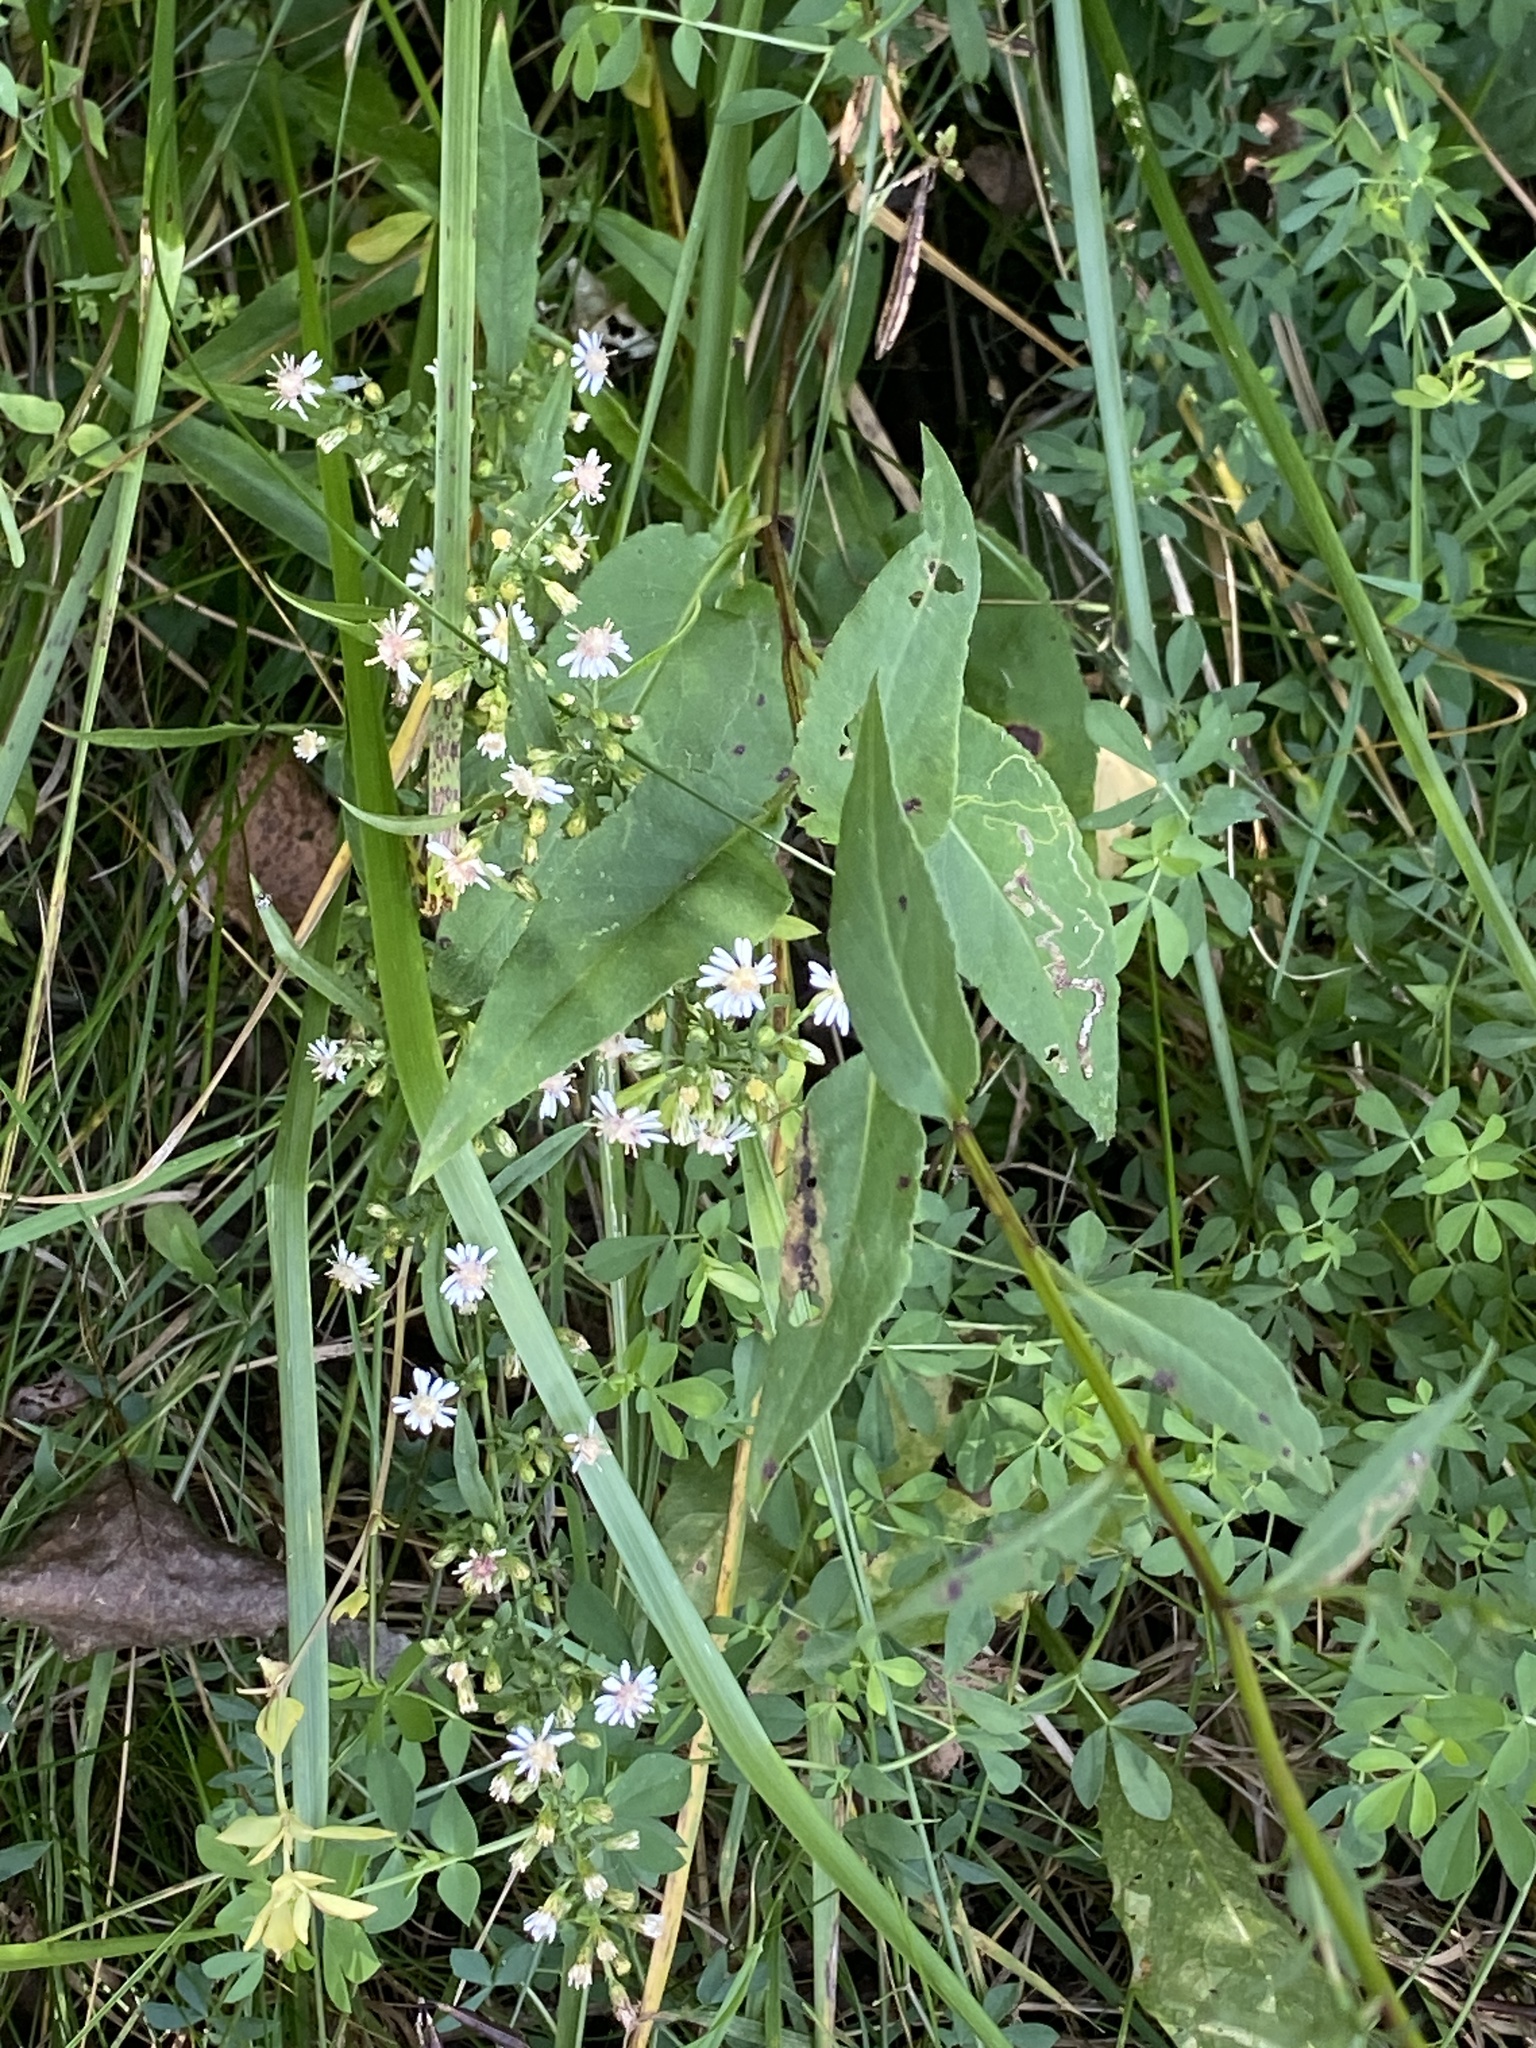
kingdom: Plantae
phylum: Tracheophyta
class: Magnoliopsida
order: Asterales
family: Asteraceae
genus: Symphyotrichum
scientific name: Symphyotrichum lateriflorum
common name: Calico aster
